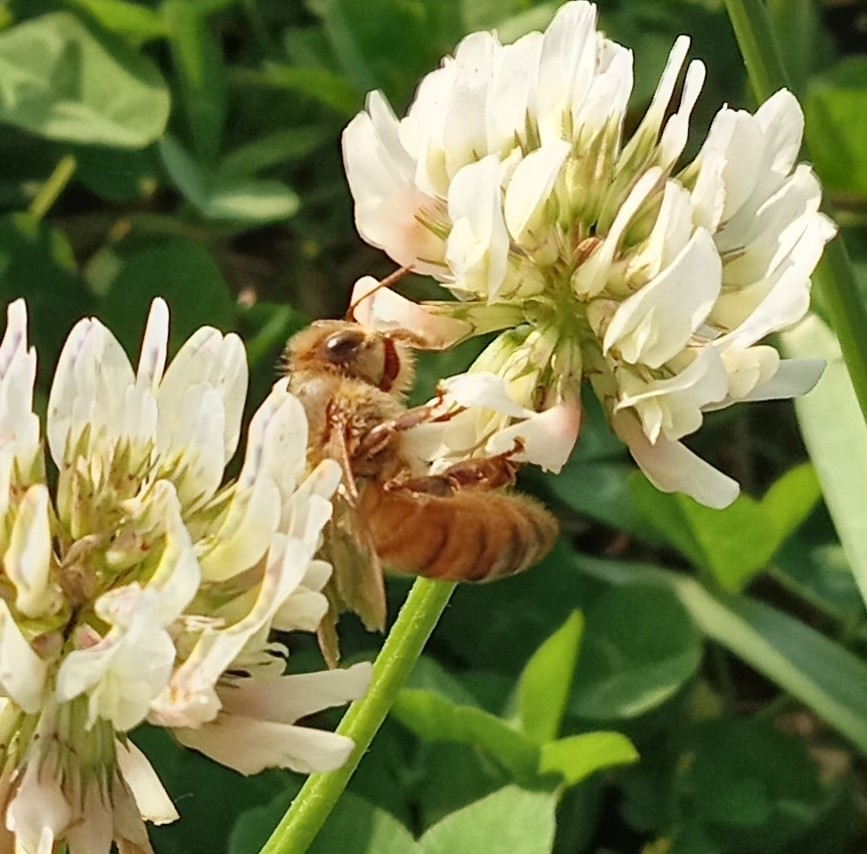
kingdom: Animalia
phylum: Arthropoda
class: Insecta
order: Hymenoptera
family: Apidae
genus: Apis
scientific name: Apis mellifera
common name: Honey bee
